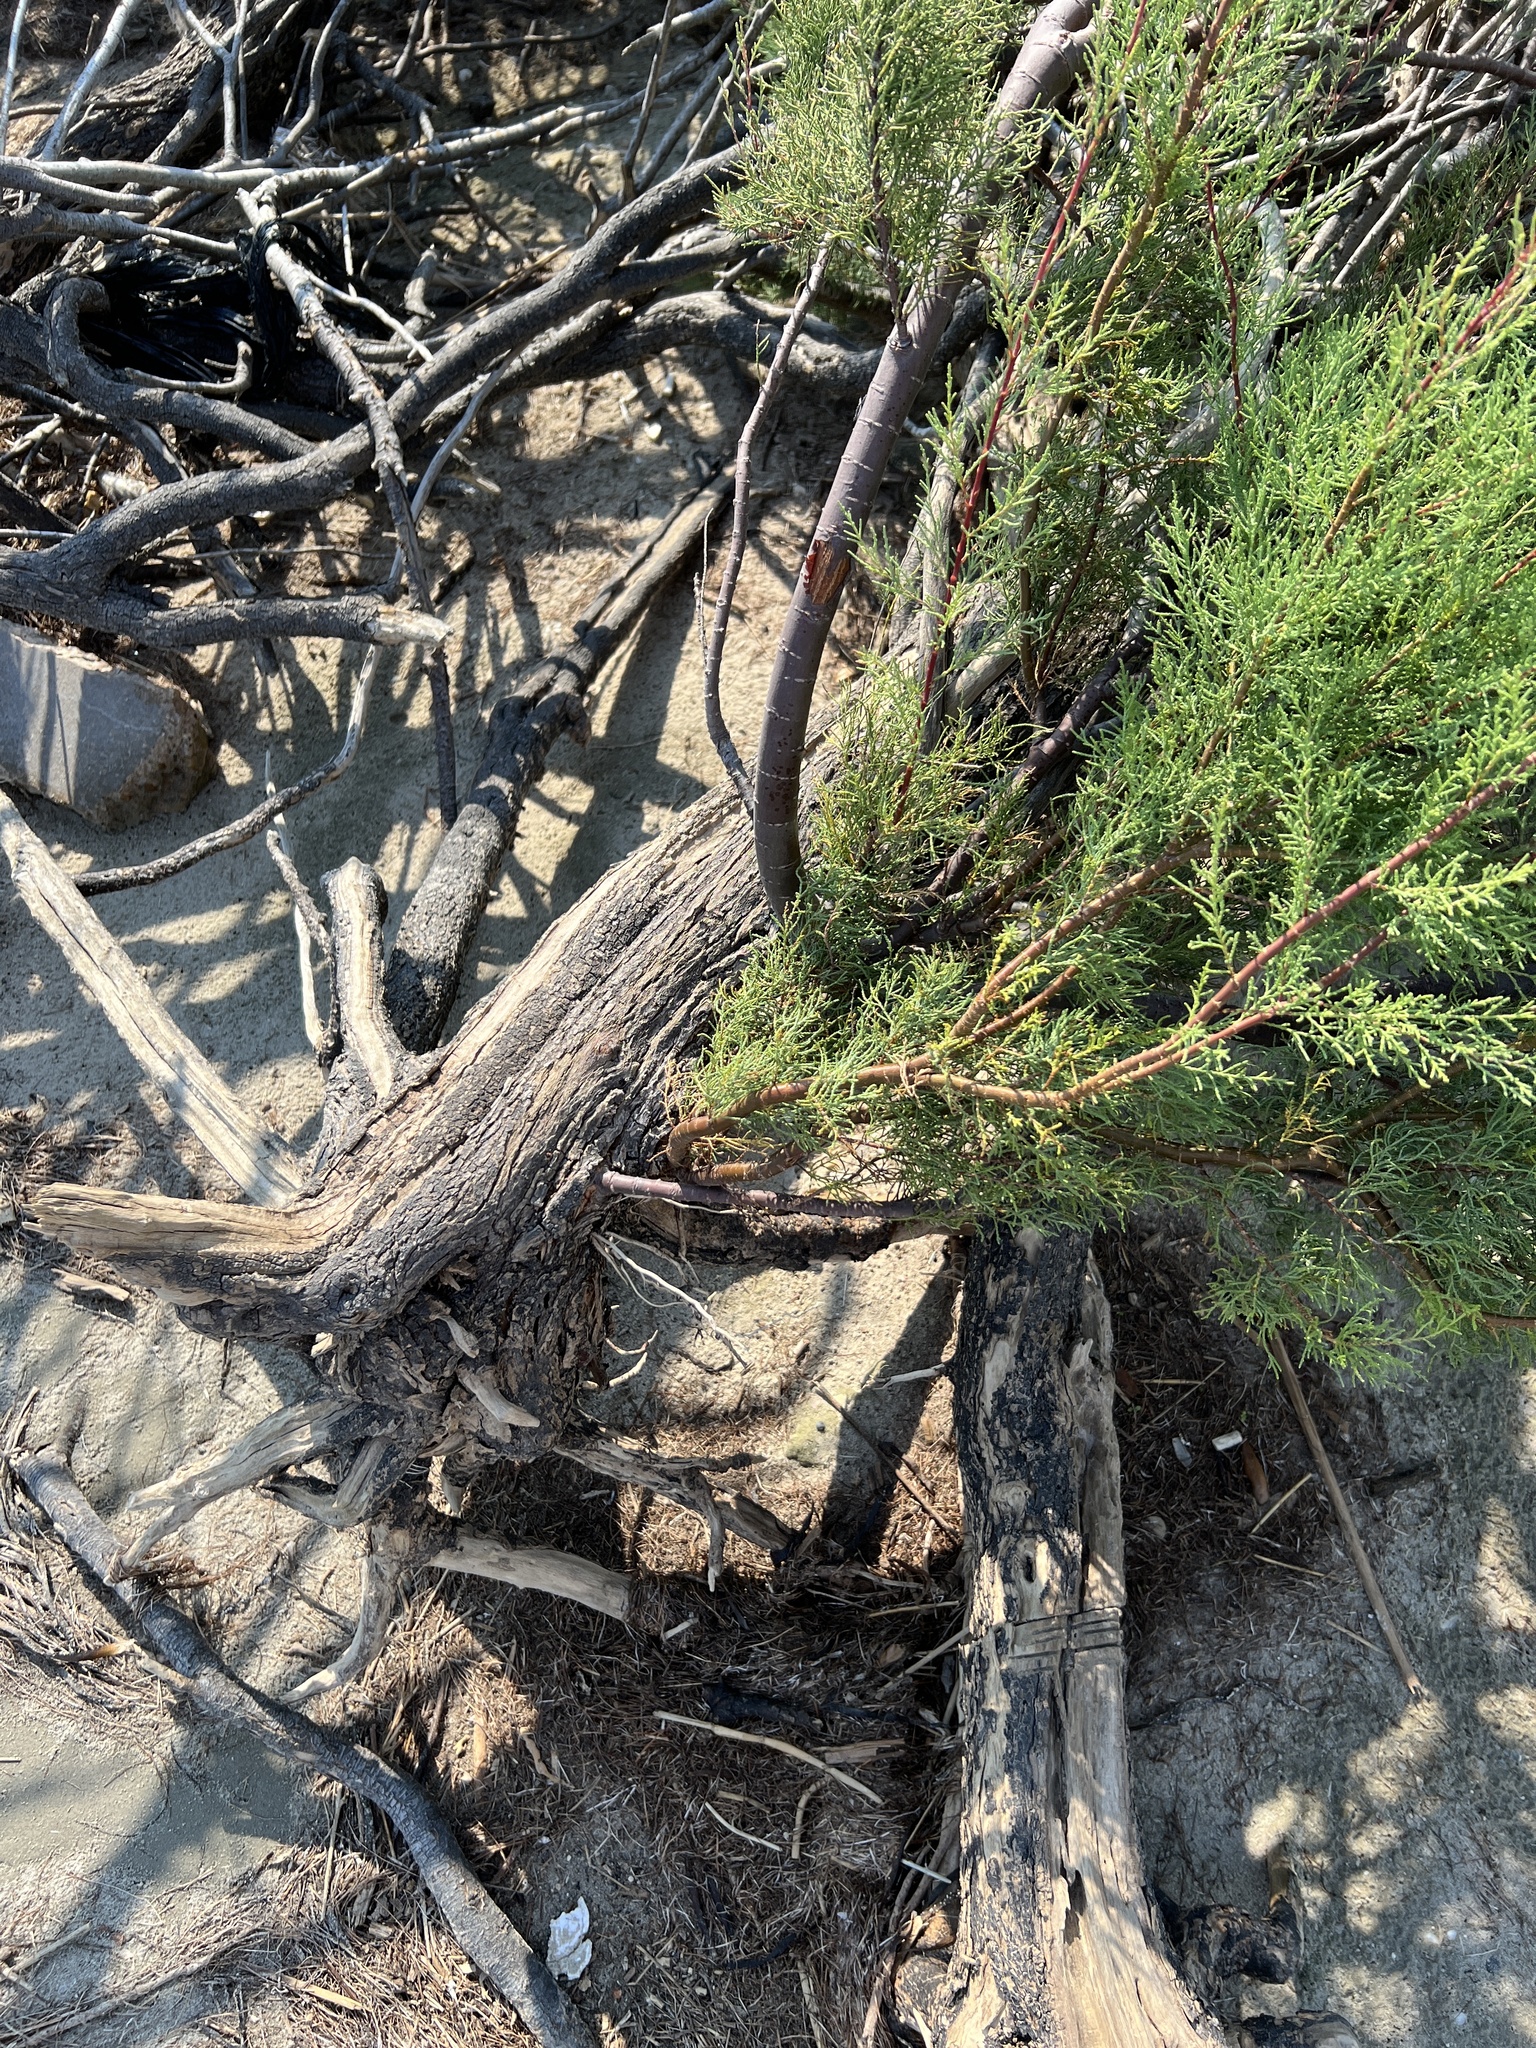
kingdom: Plantae
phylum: Tracheophyta
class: Magnoliopsida
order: Caryophyllales
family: Tamaricaceae
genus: Tamarix
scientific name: Tamarix
